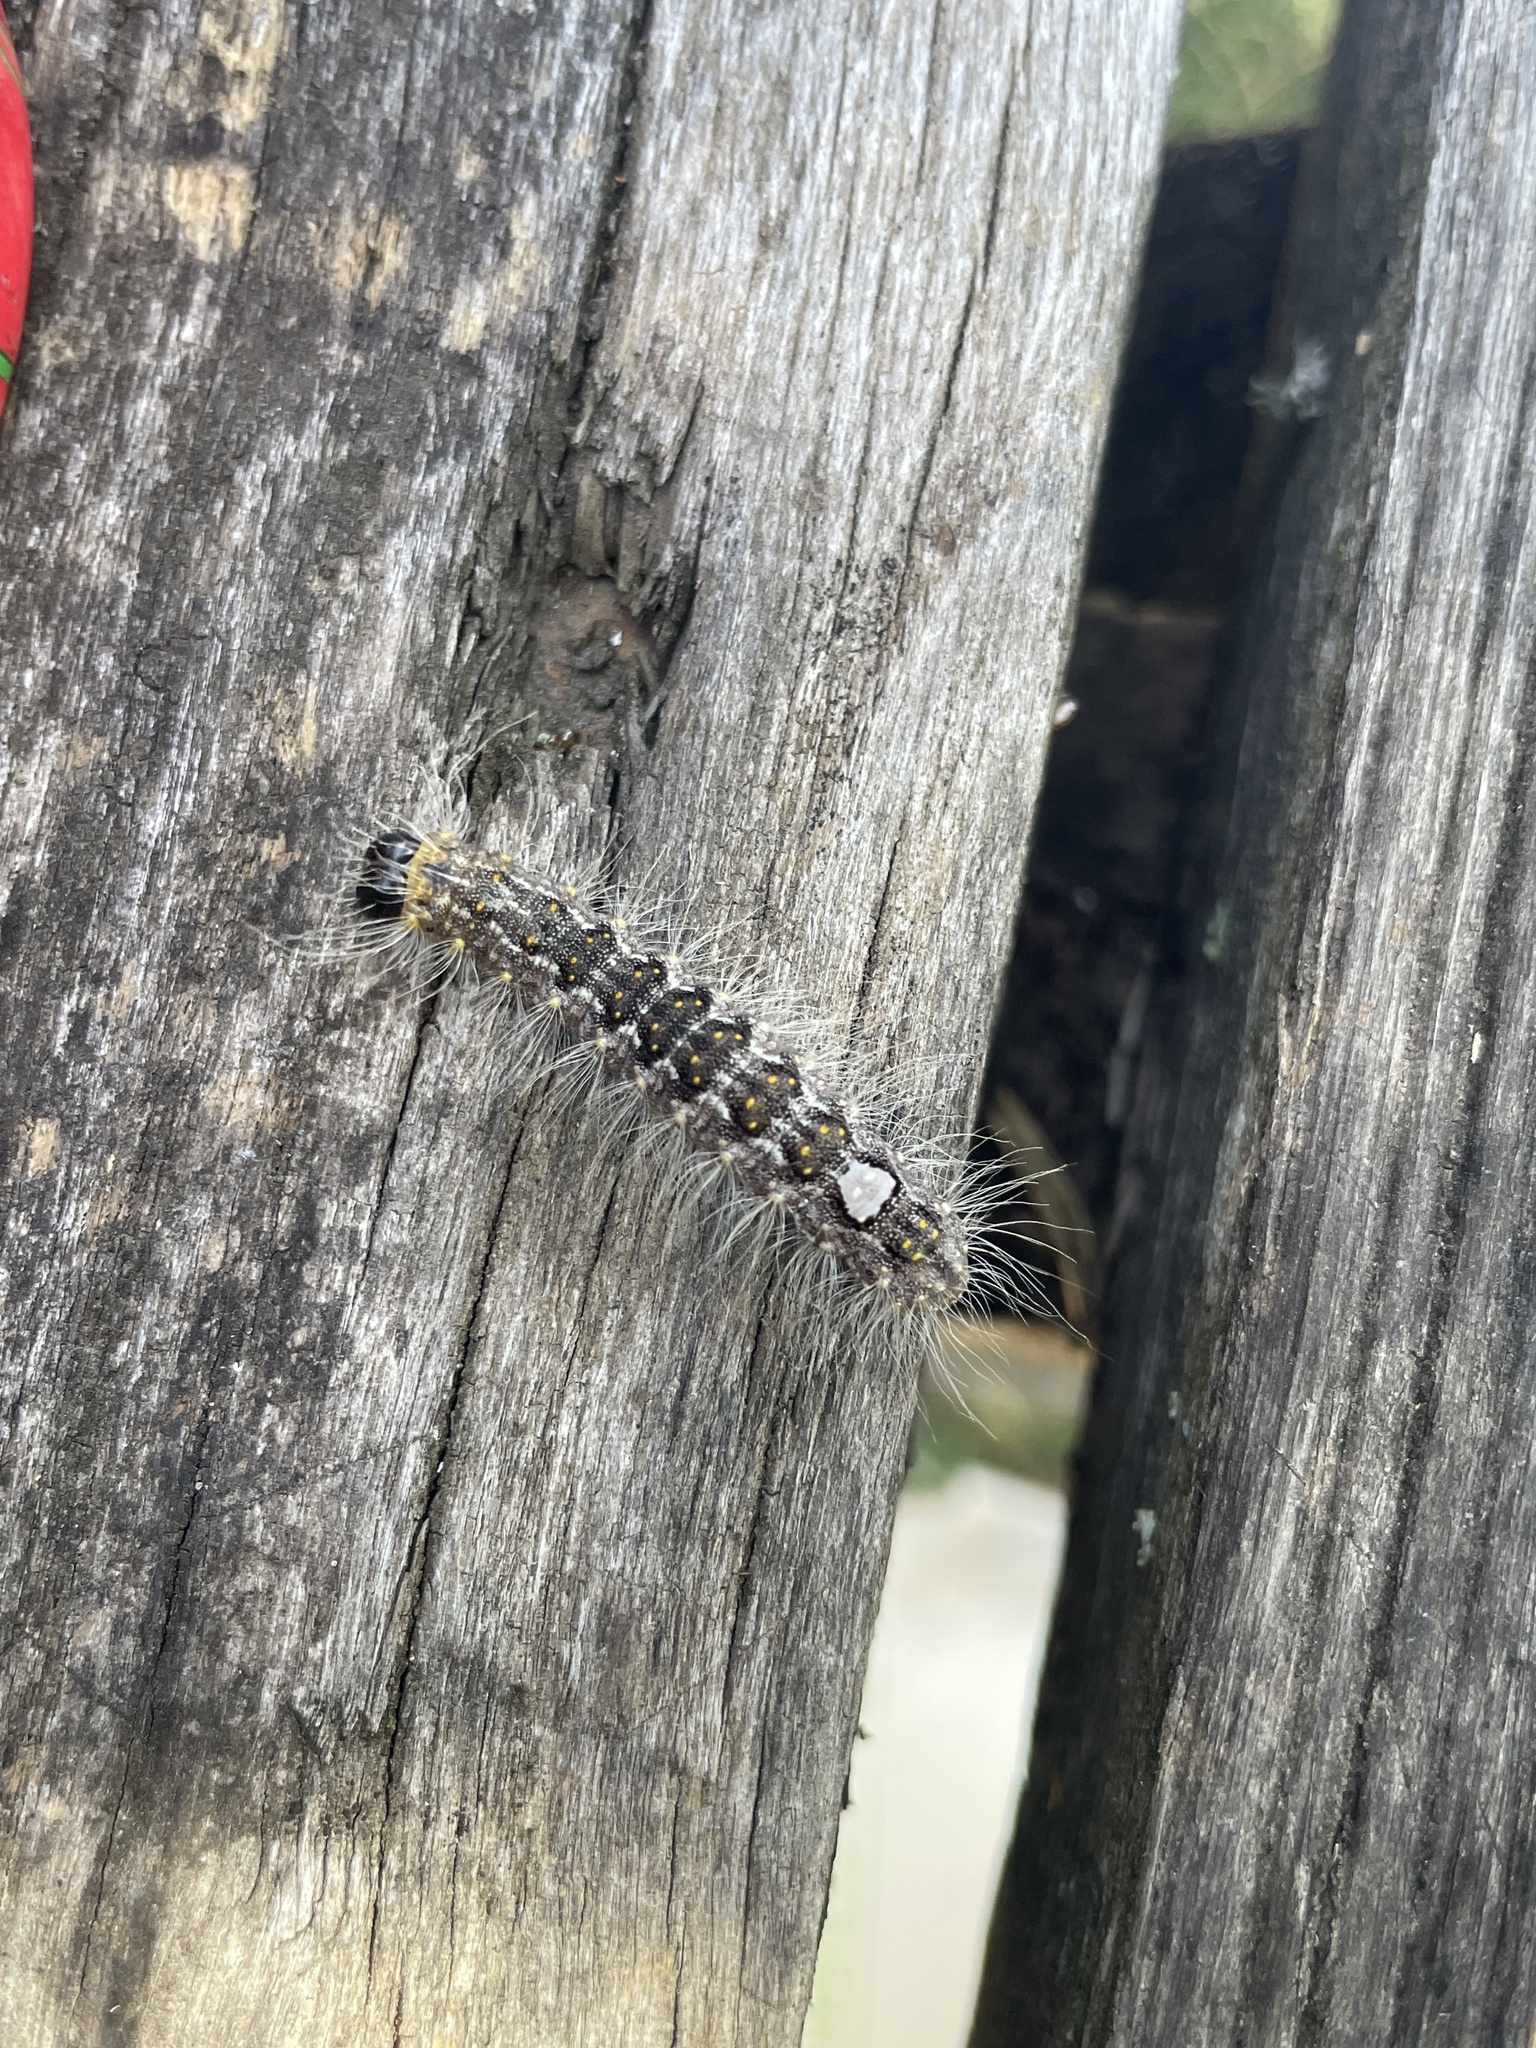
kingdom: Animalia
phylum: Arthropoda
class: Insecta
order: Lepidoptera
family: Noctuidae
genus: Acronicta
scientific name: Acronicta megacephala
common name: Poplar grey
